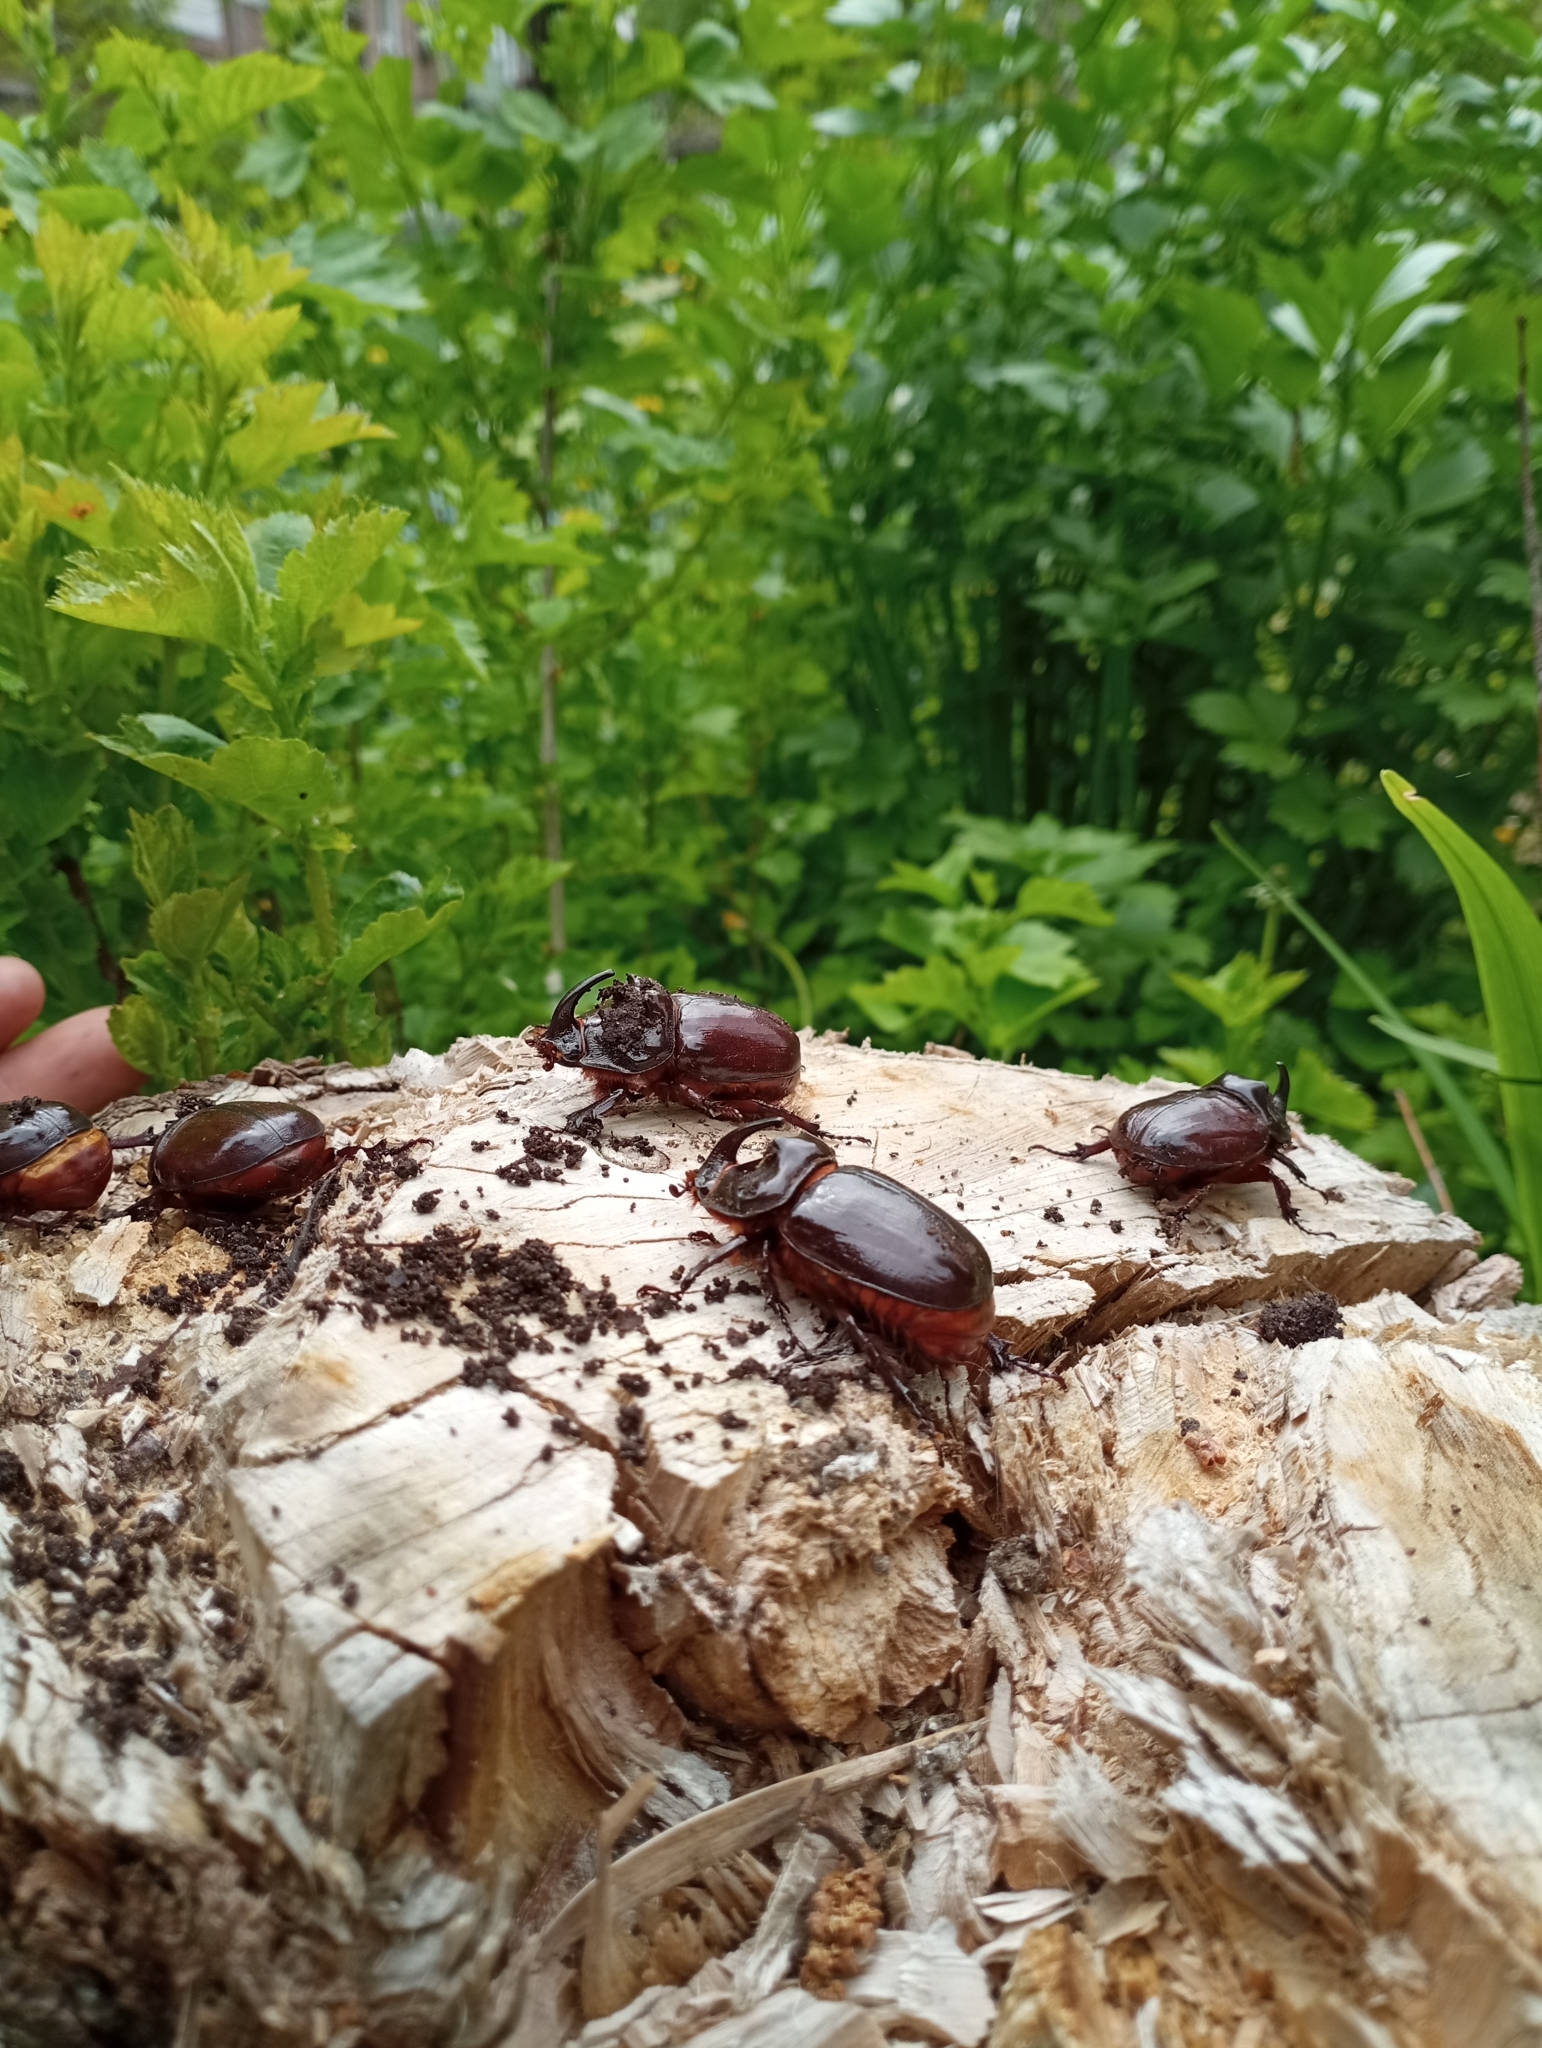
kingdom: Animalia
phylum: Arthropoda
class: Insecta
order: Coleoptera
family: Scarabaeidae
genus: Oryctes
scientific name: Oryctes nasicornis
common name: European rhinoceros beetle
